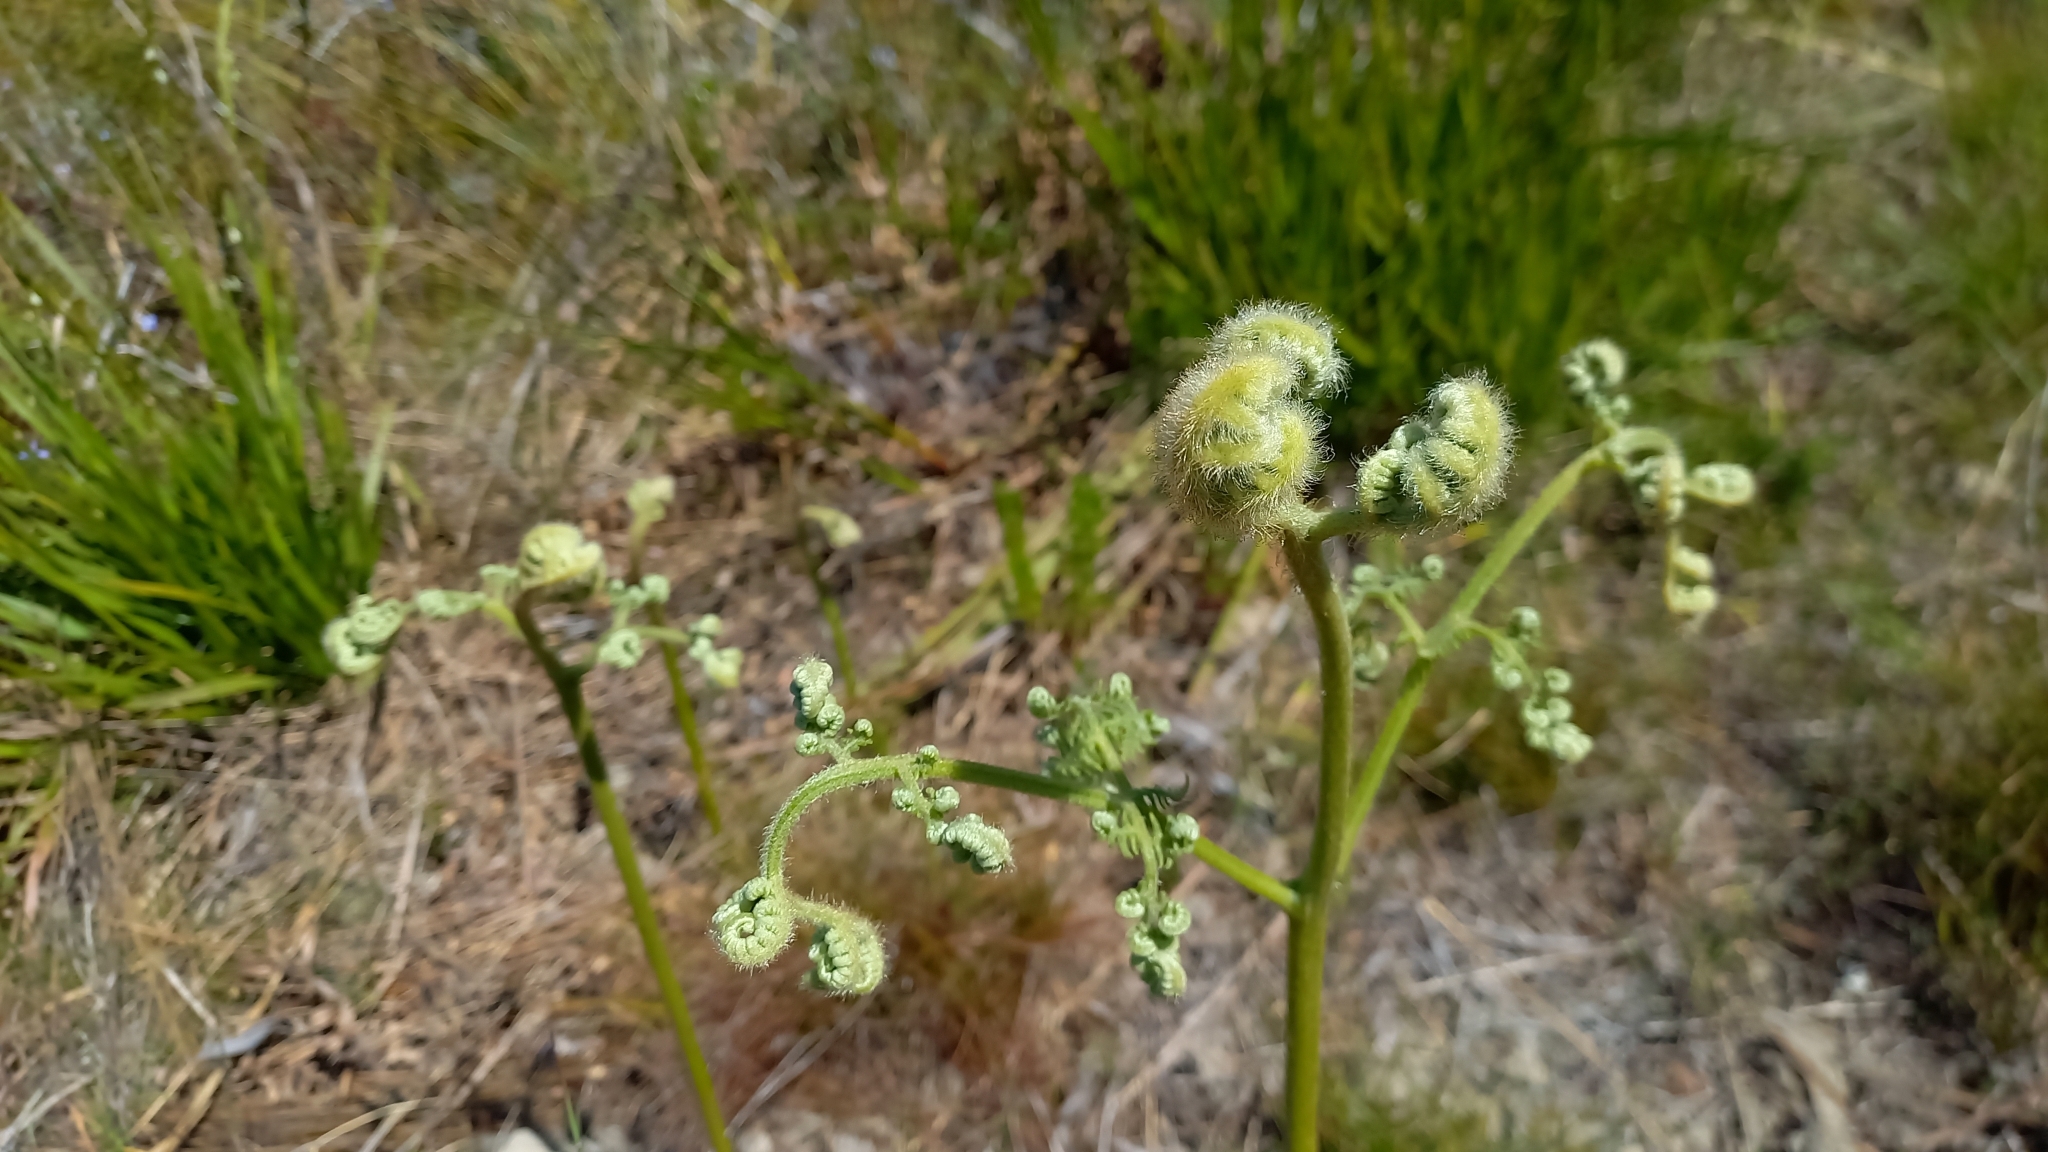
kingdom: Plantae
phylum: Tracheophyta
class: Polypodiopsida
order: Polypodiales
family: Dennstaedtiaceae
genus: Pteridium
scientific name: Pteridium aquilinum
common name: Bracken
